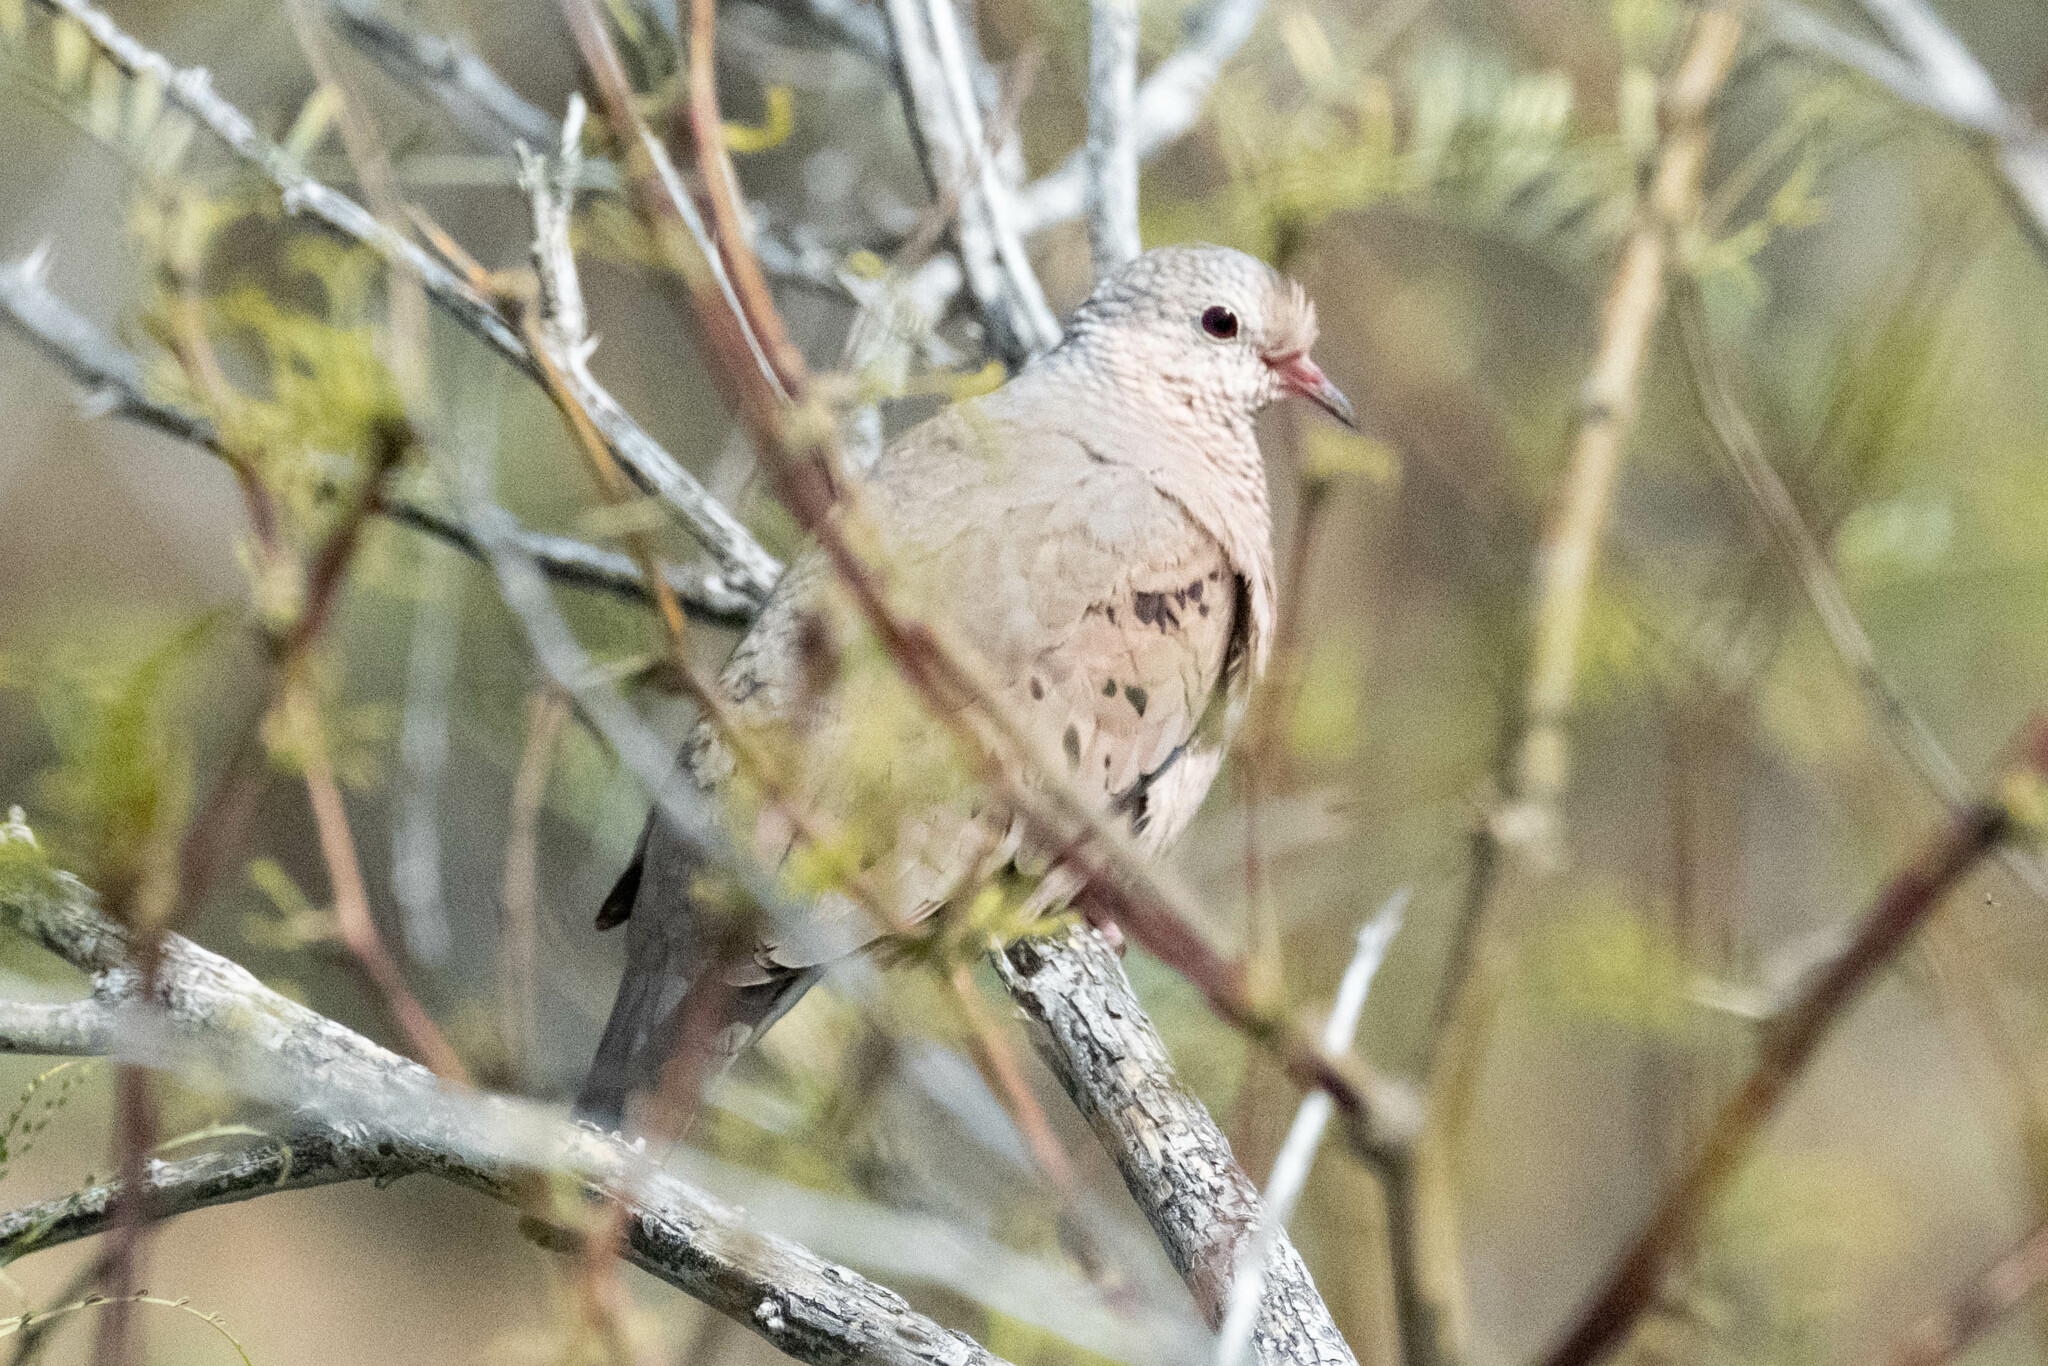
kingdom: Animalia
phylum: Chordata
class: Aves
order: Columbiformes
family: Columbidae
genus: Columbina
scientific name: Columbina passerina
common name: Common ground-dove
